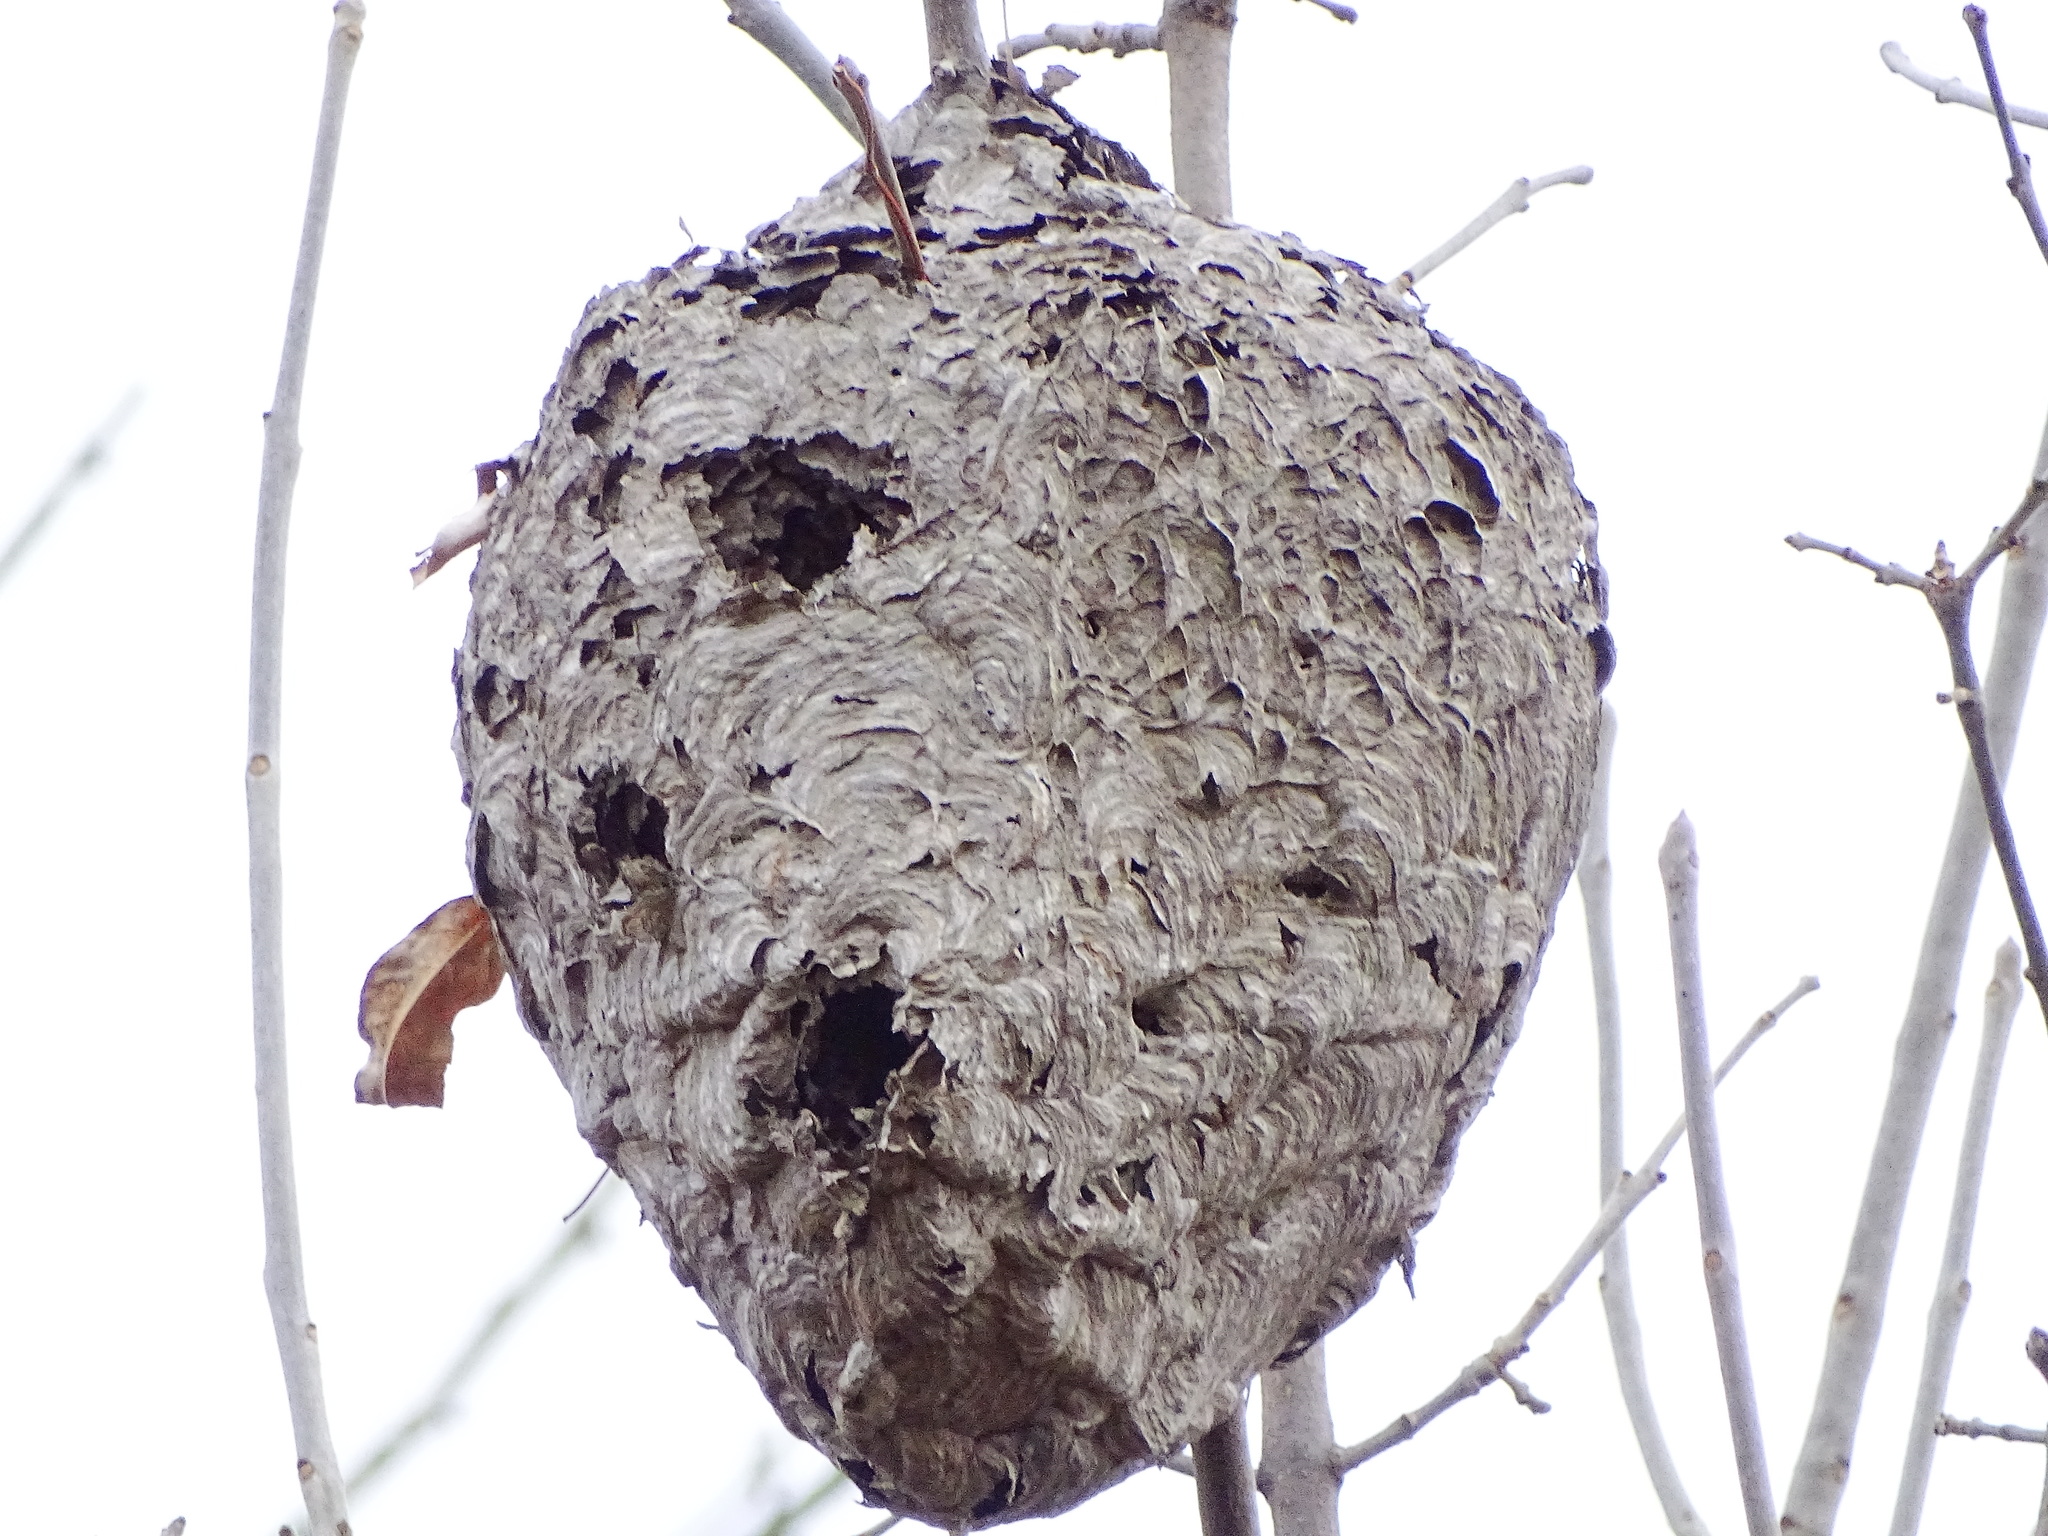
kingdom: Animalia
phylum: Arthropoda
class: Insecta
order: Hymenoptera
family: Vespidae
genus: Dolichovespula
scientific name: Dolichovespula maculata
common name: Bald-faced hornet
